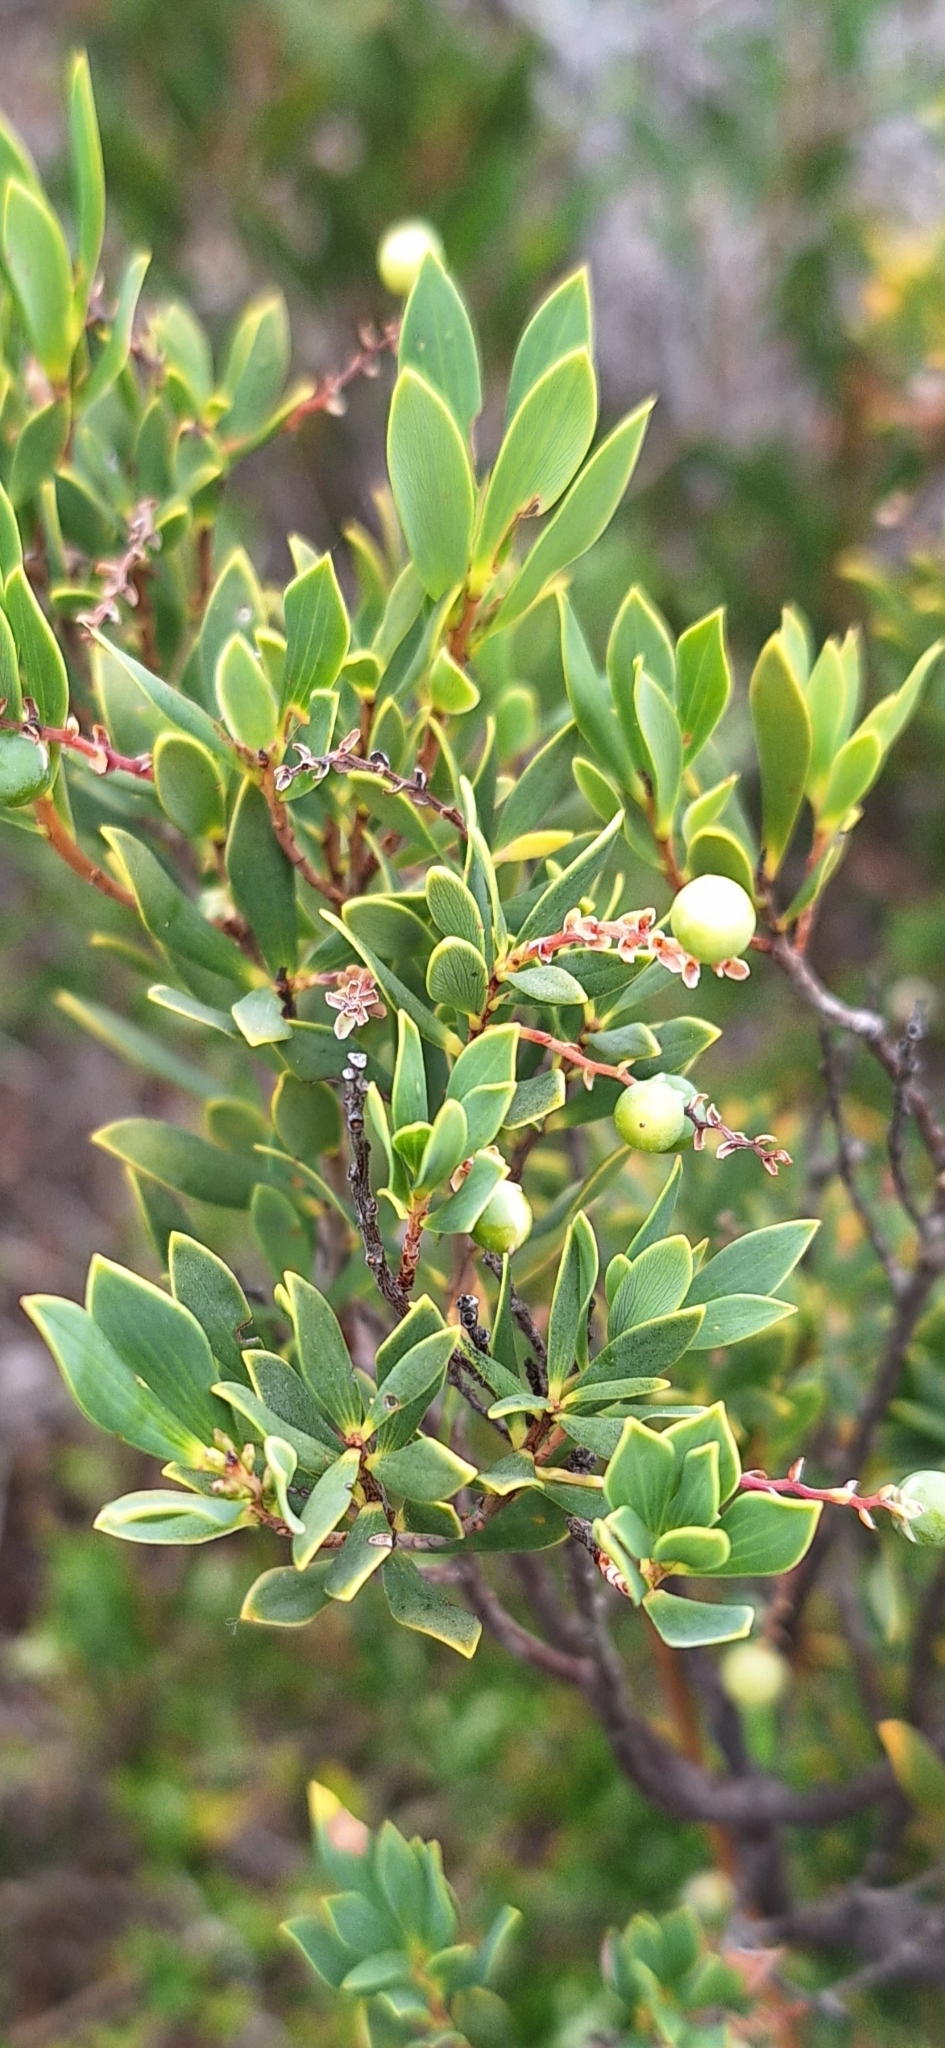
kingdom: Plantae
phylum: Tracheophyta
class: Magnoliopsida
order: Ericales
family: Ericaceae
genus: Leptecophylla
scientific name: Leptecophylla parvifolia
